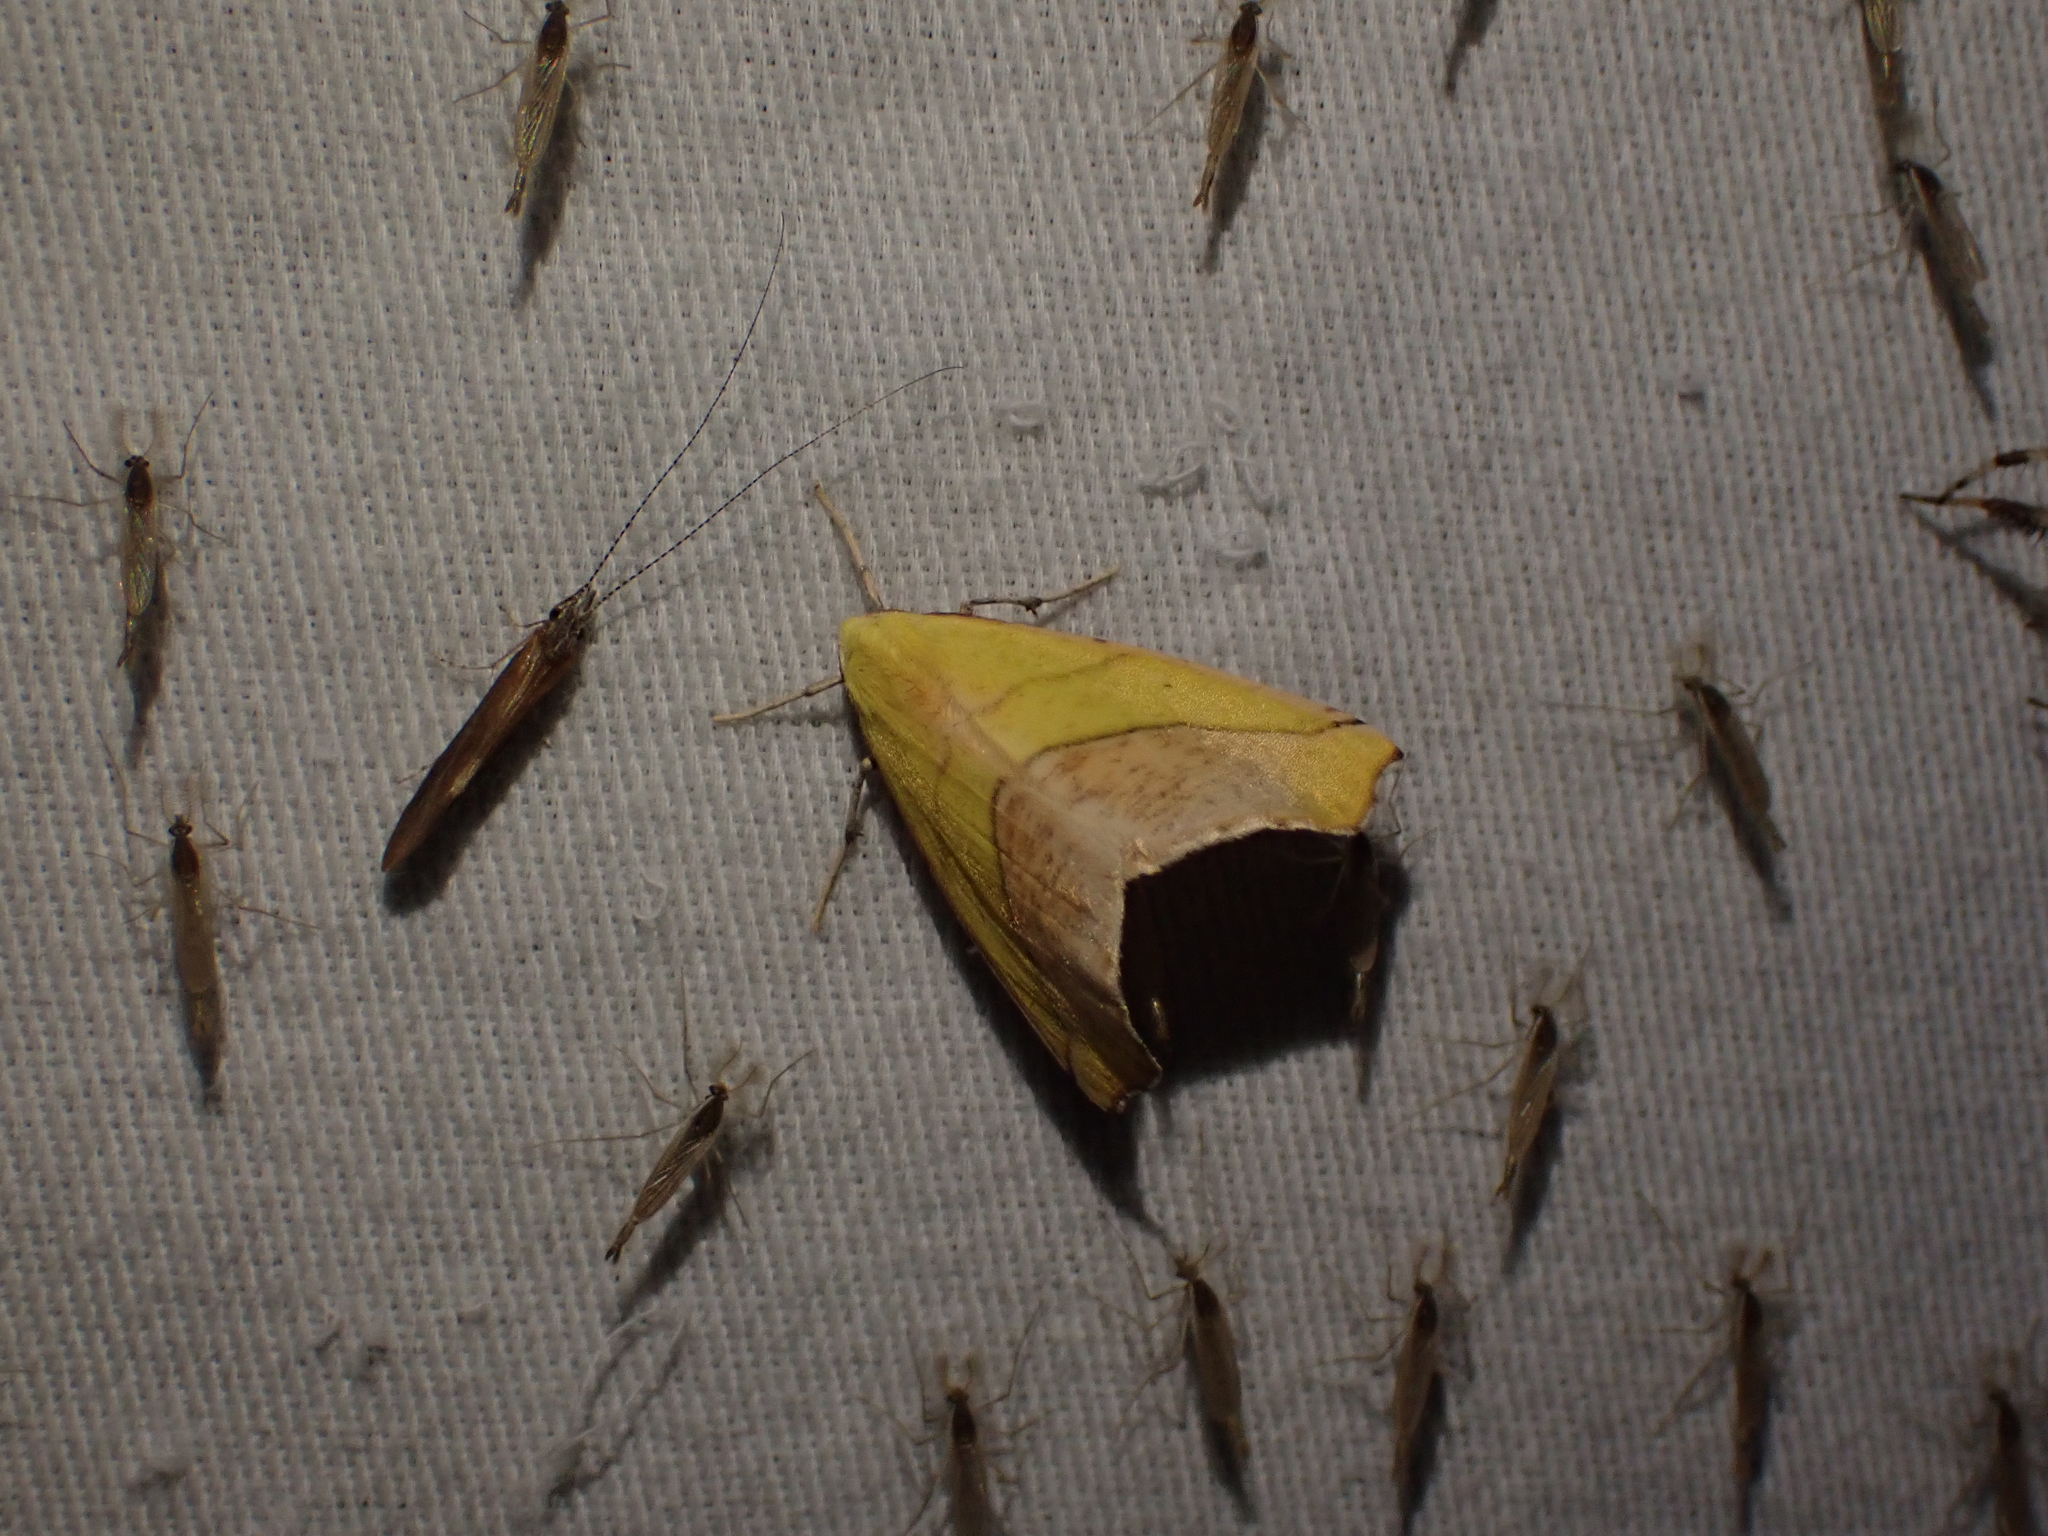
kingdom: Animalia
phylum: Arthropoda
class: Insecta
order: Lepidoptera
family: Geometridae
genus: Sicya
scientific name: Sicya macularia
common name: Sharp-lined yellow
